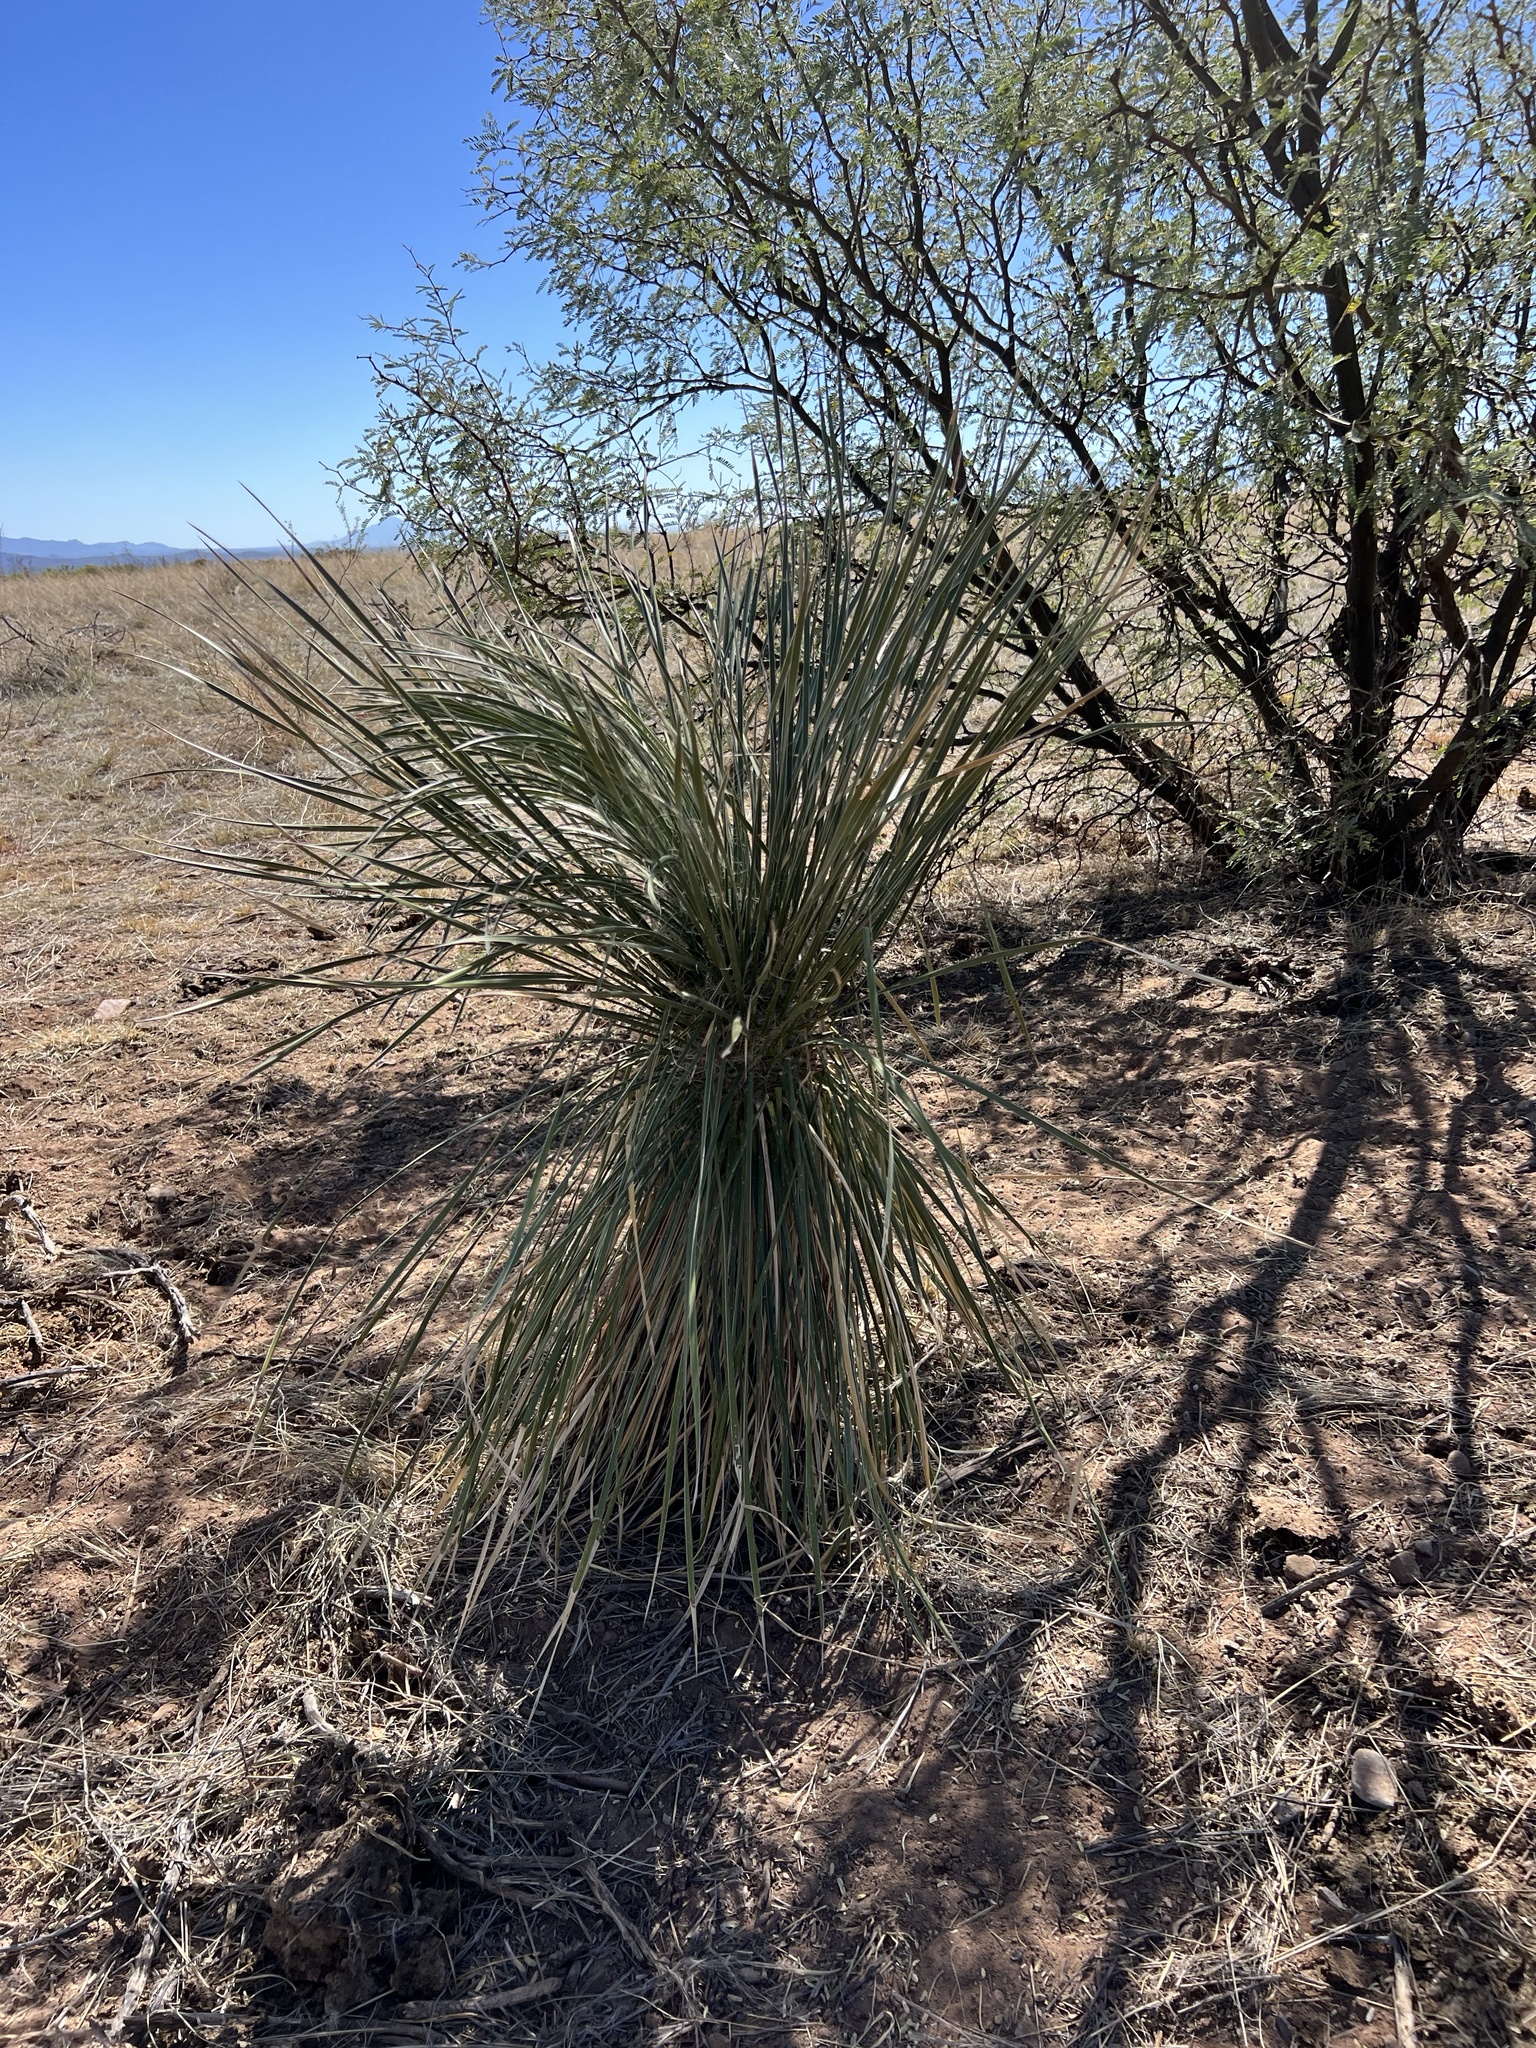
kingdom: Plantae
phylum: Tracheophyta
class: Liliopsida
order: Asparagales
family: Asparagaceae
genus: Yucca
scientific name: Yucca elata
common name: Palmella
